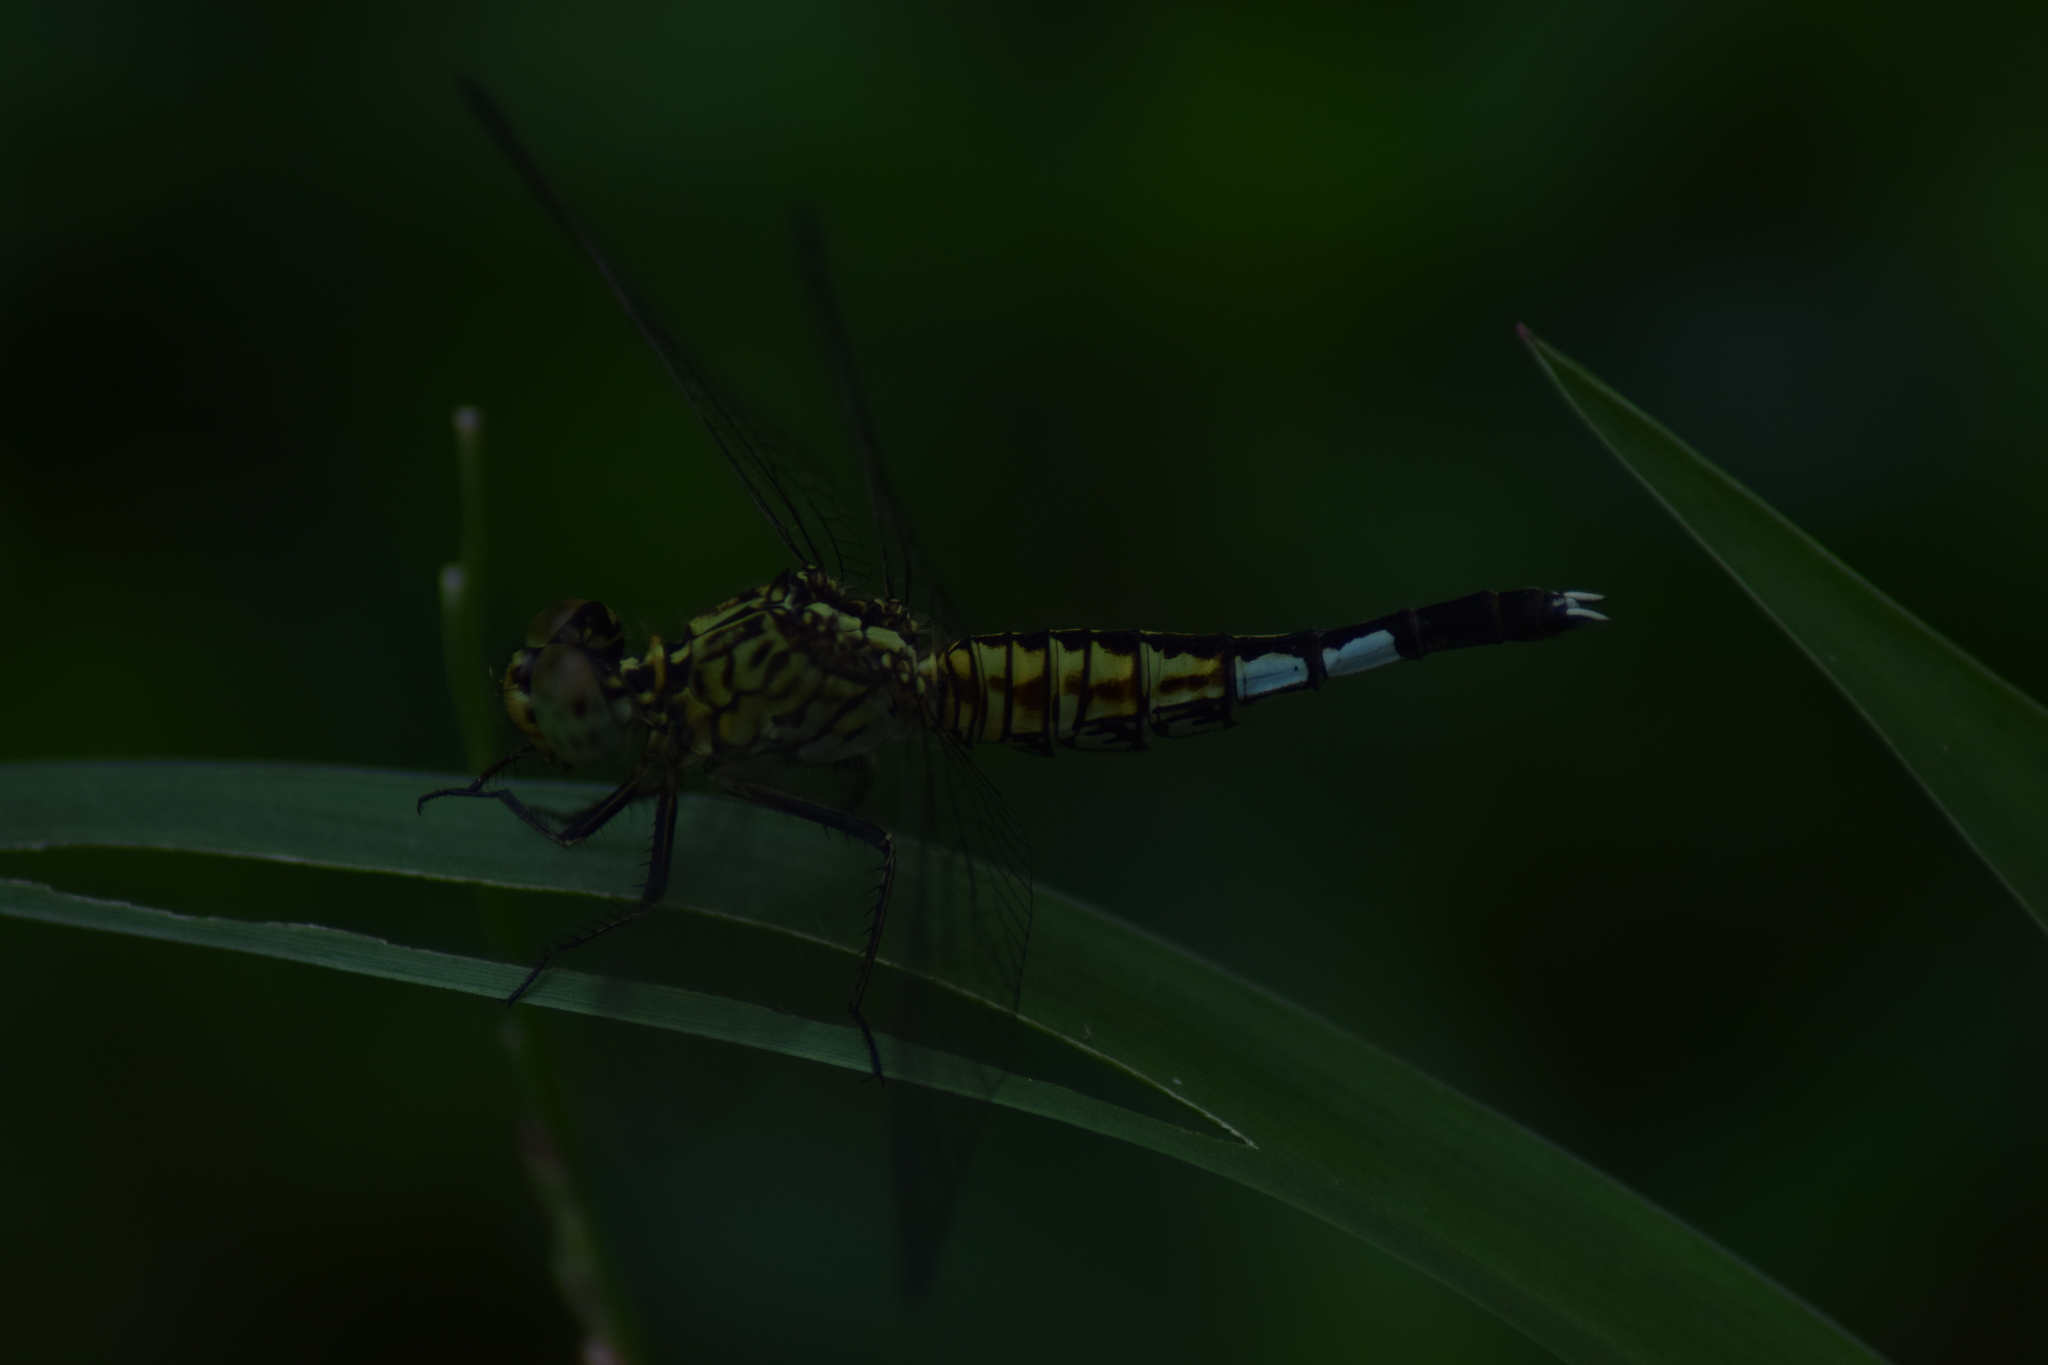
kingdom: Animalia
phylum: Arthropoda
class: Insecta
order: Odonata
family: Libellulidae
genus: Acisoma
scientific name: Acisoma panorpoides
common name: Asian pintail
